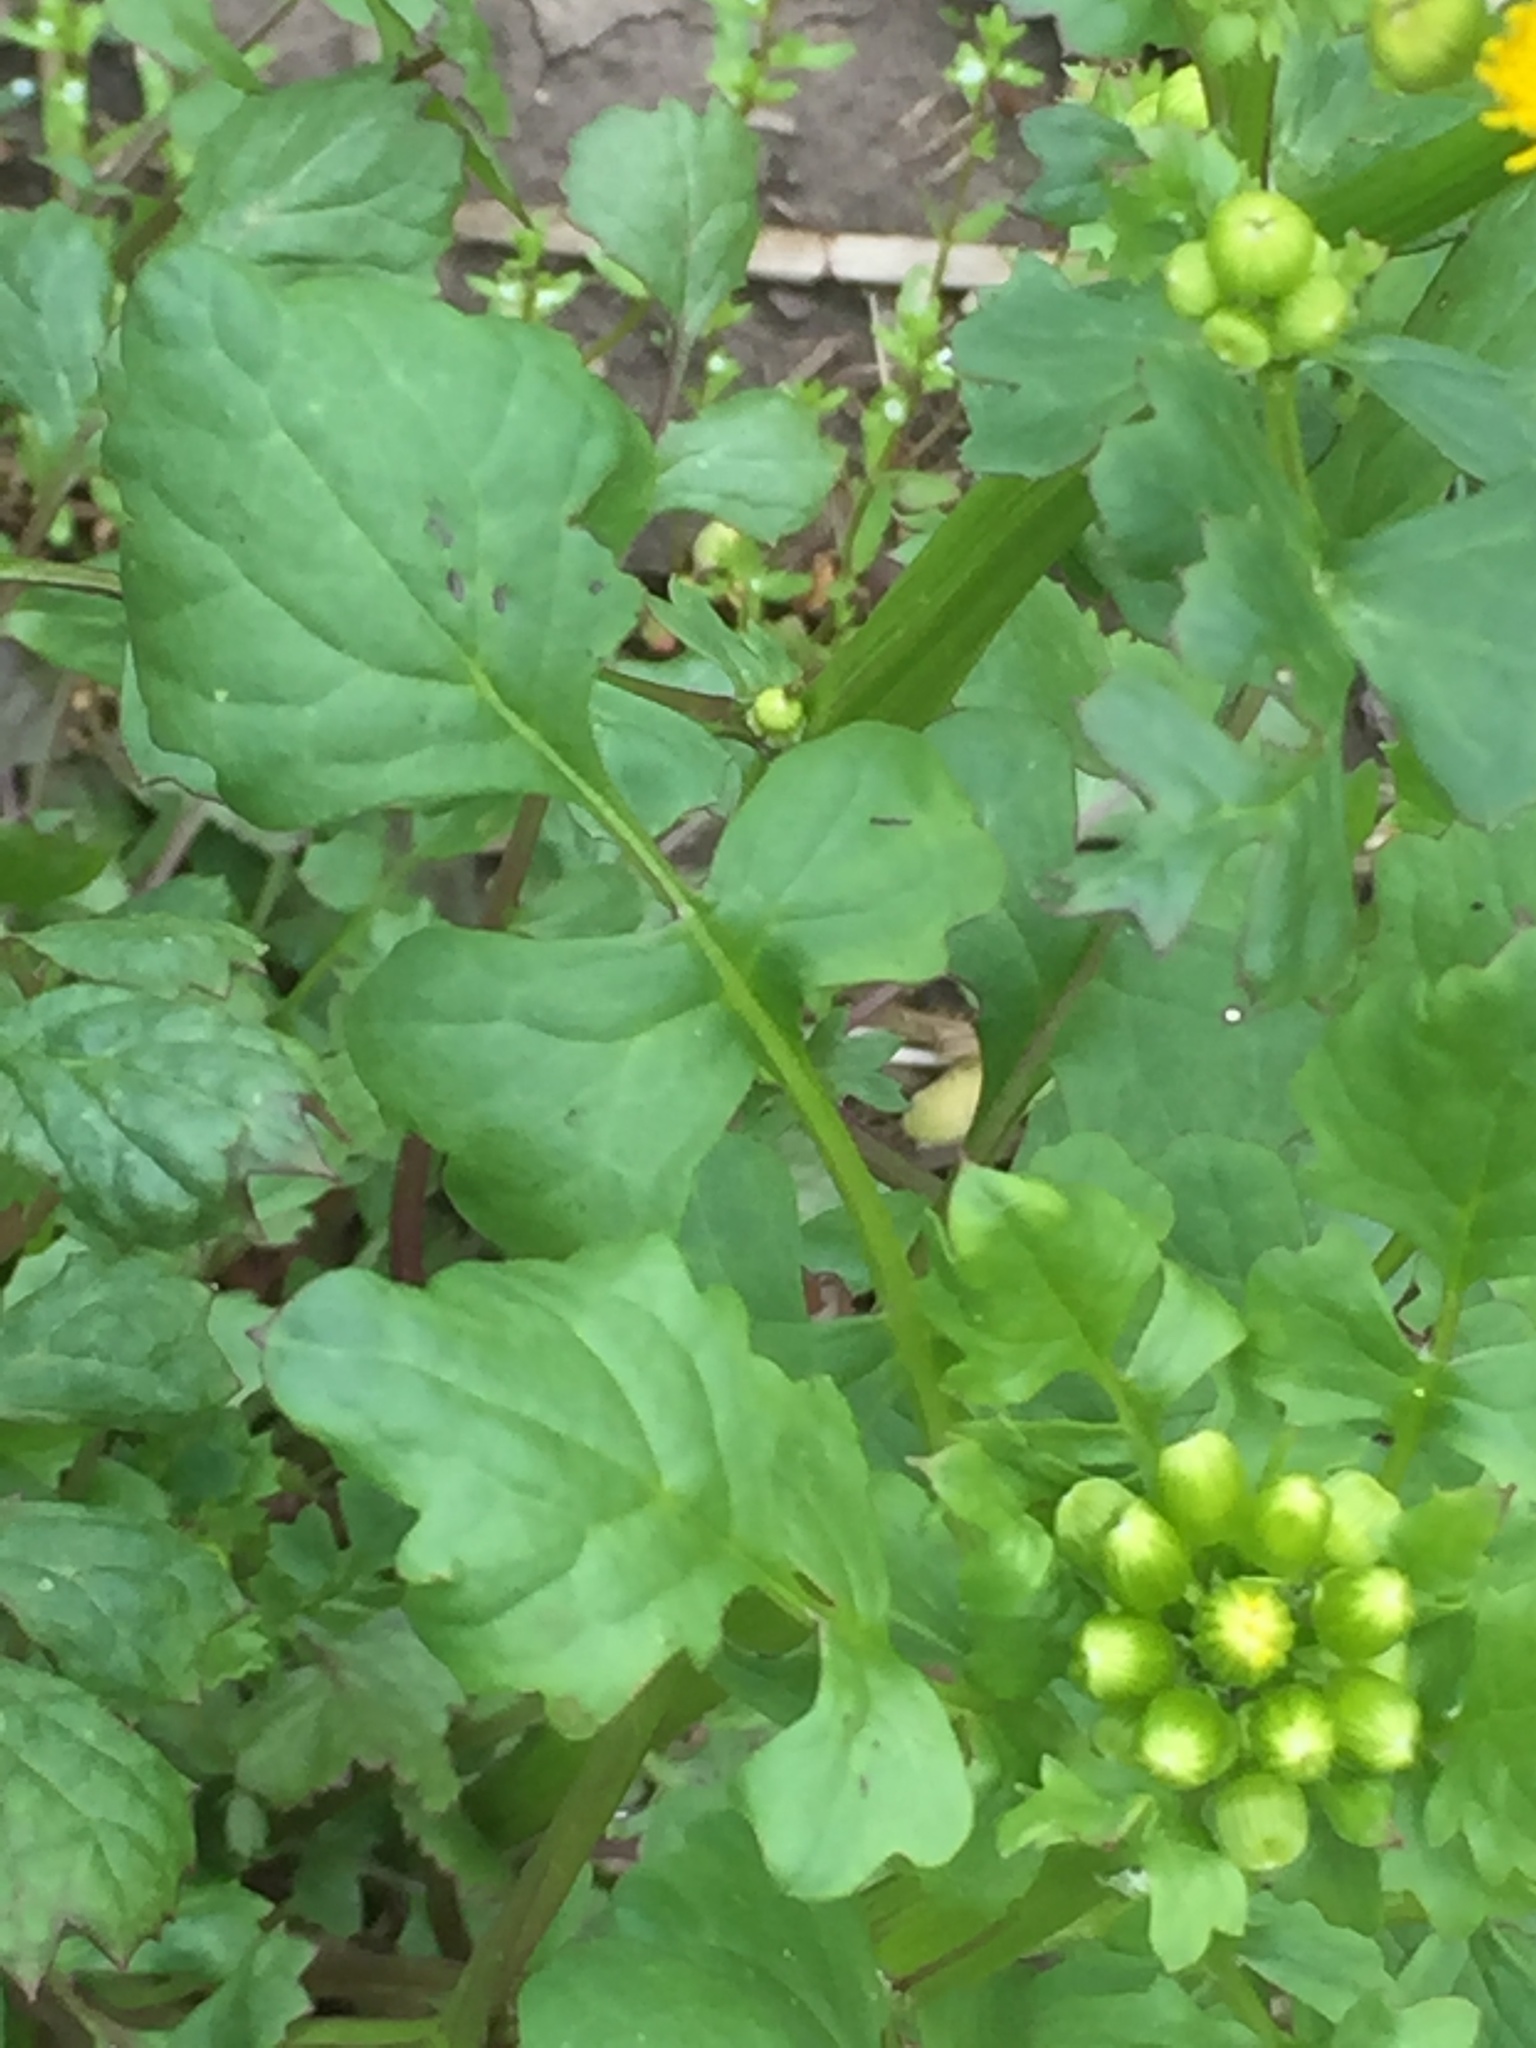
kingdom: Plantae
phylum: Tracheophyta
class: Magnoliopsida
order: Asterales
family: Asteraceae
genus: Packera
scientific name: Packera glabella
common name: Butterweed
